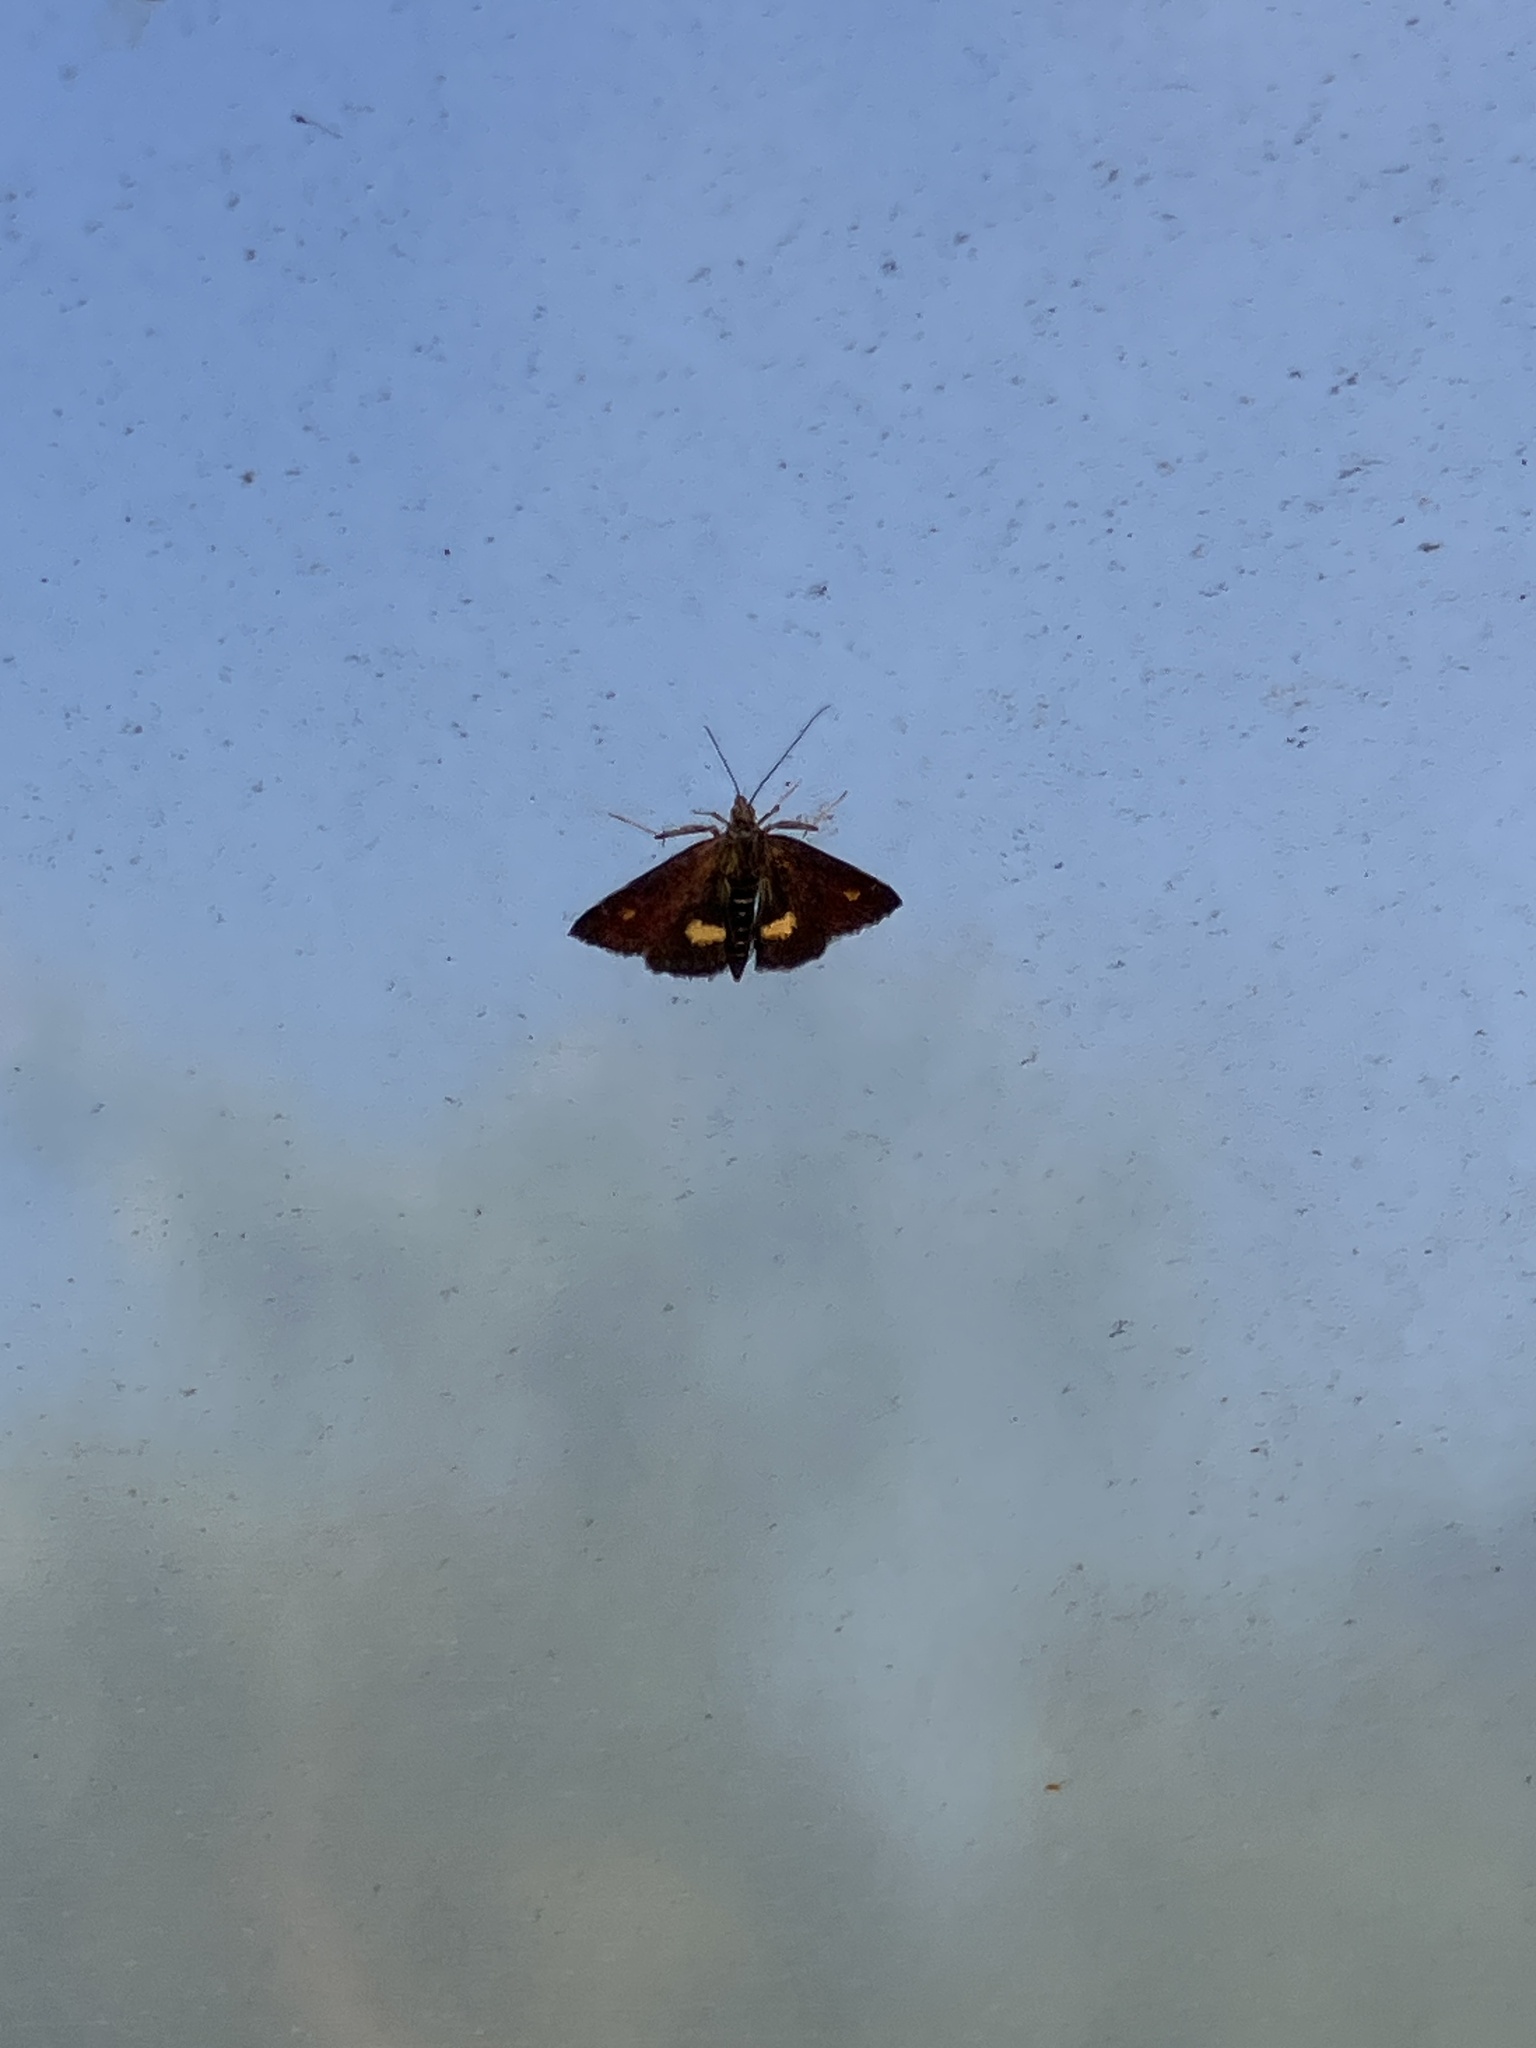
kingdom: Animalia
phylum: Arthropoda
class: Insecta
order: Lepidoptera
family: Crambidae
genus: Pyrausta
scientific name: Pyrausta aurata
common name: Small purple & gold
